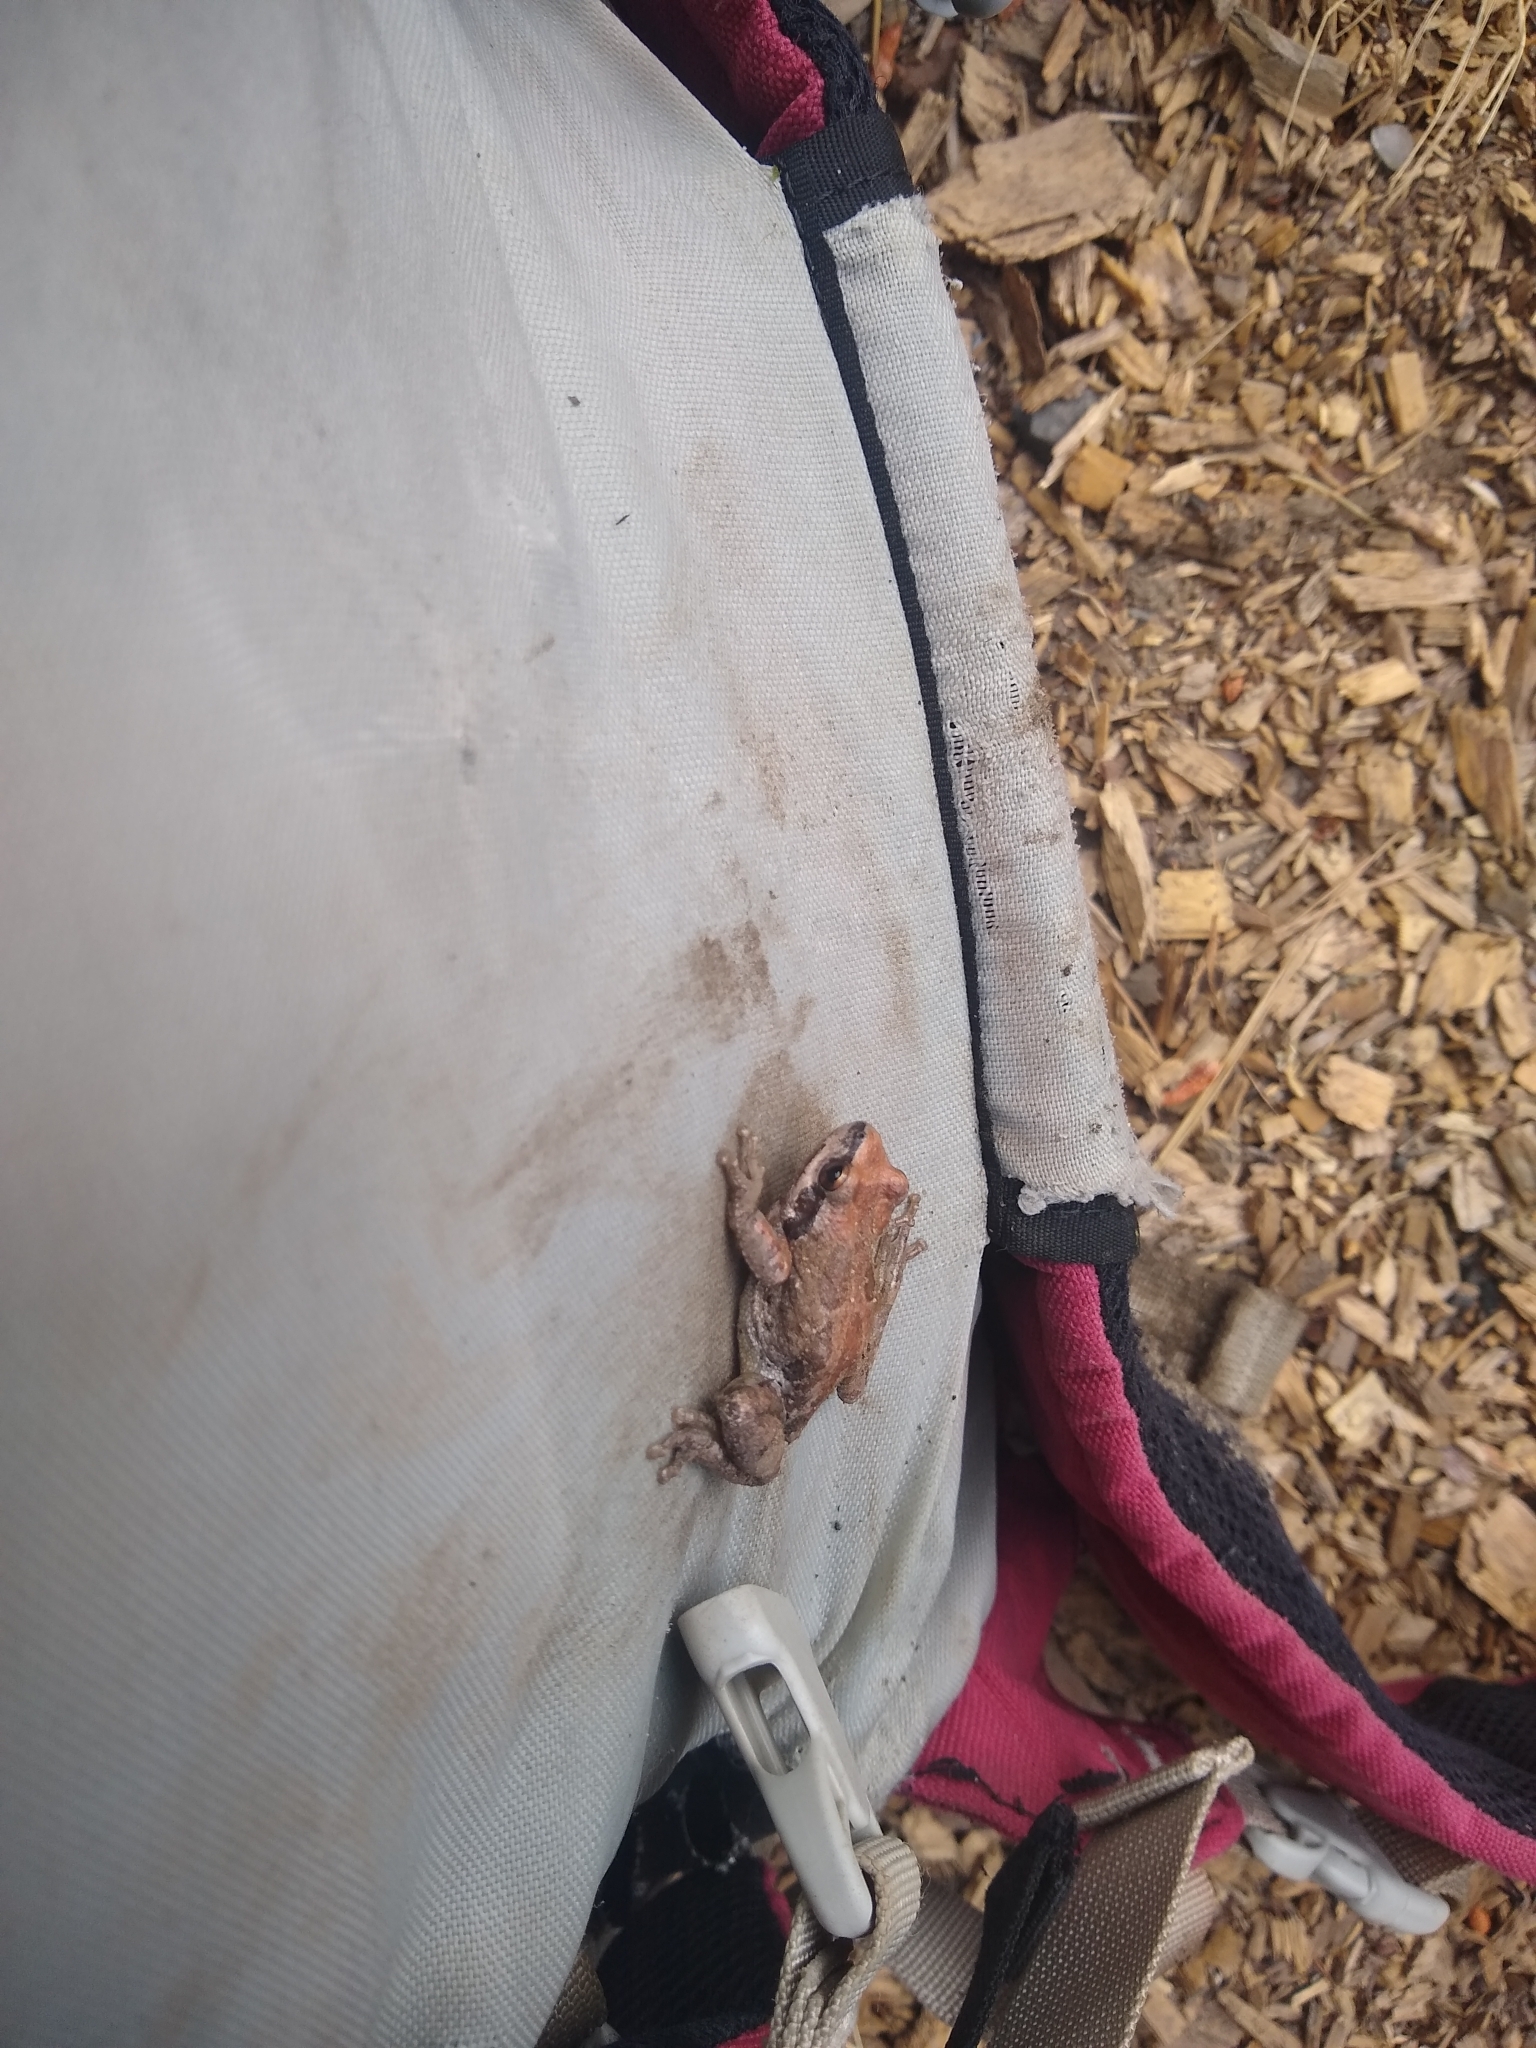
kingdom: Animalia
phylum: Chordata
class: Amphibia
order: Anura
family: Hylidae
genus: Pseudacris
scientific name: Pseudacris regilla
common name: Pacific chorus frog
